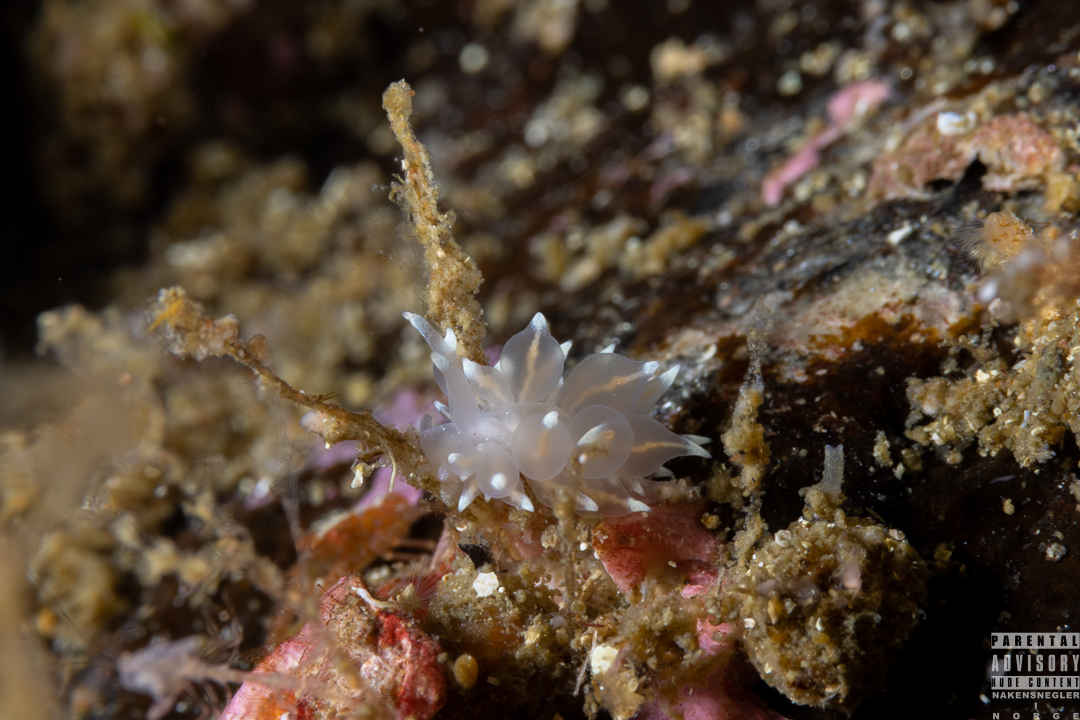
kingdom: Animalia
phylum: Mollusca
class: Gastropoda
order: Nudibranchia
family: Eubranchidae
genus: Amphorina
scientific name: Amphorina linensis
